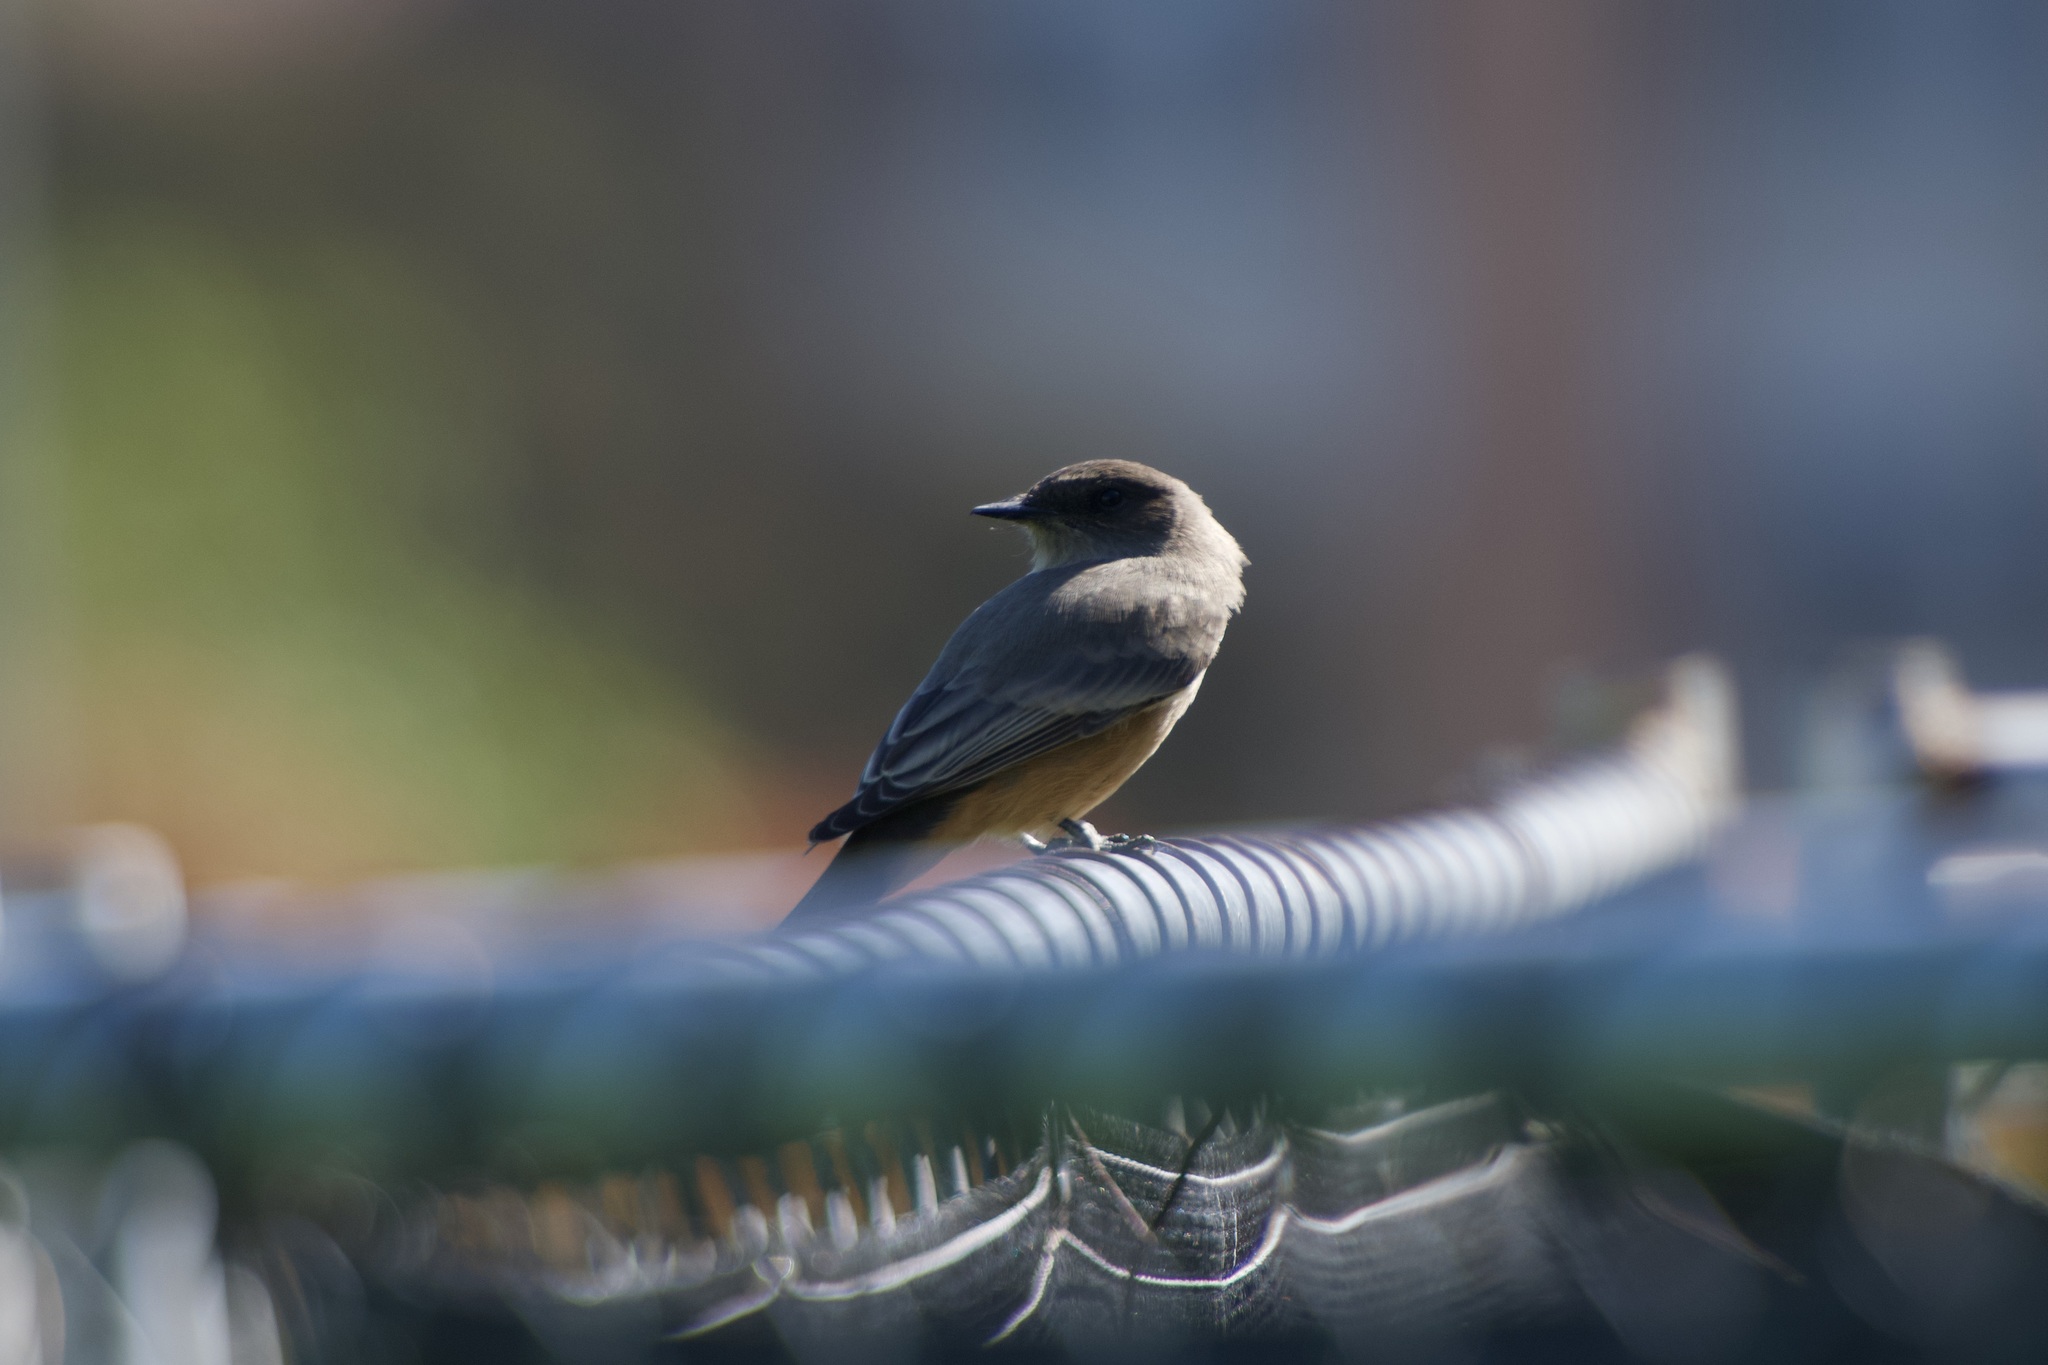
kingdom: Animalia
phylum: Chordata
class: Aves
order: Passeriformes
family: Tyrannidae
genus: Sayornis
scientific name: Sayornis saya
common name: Say's phoebe
